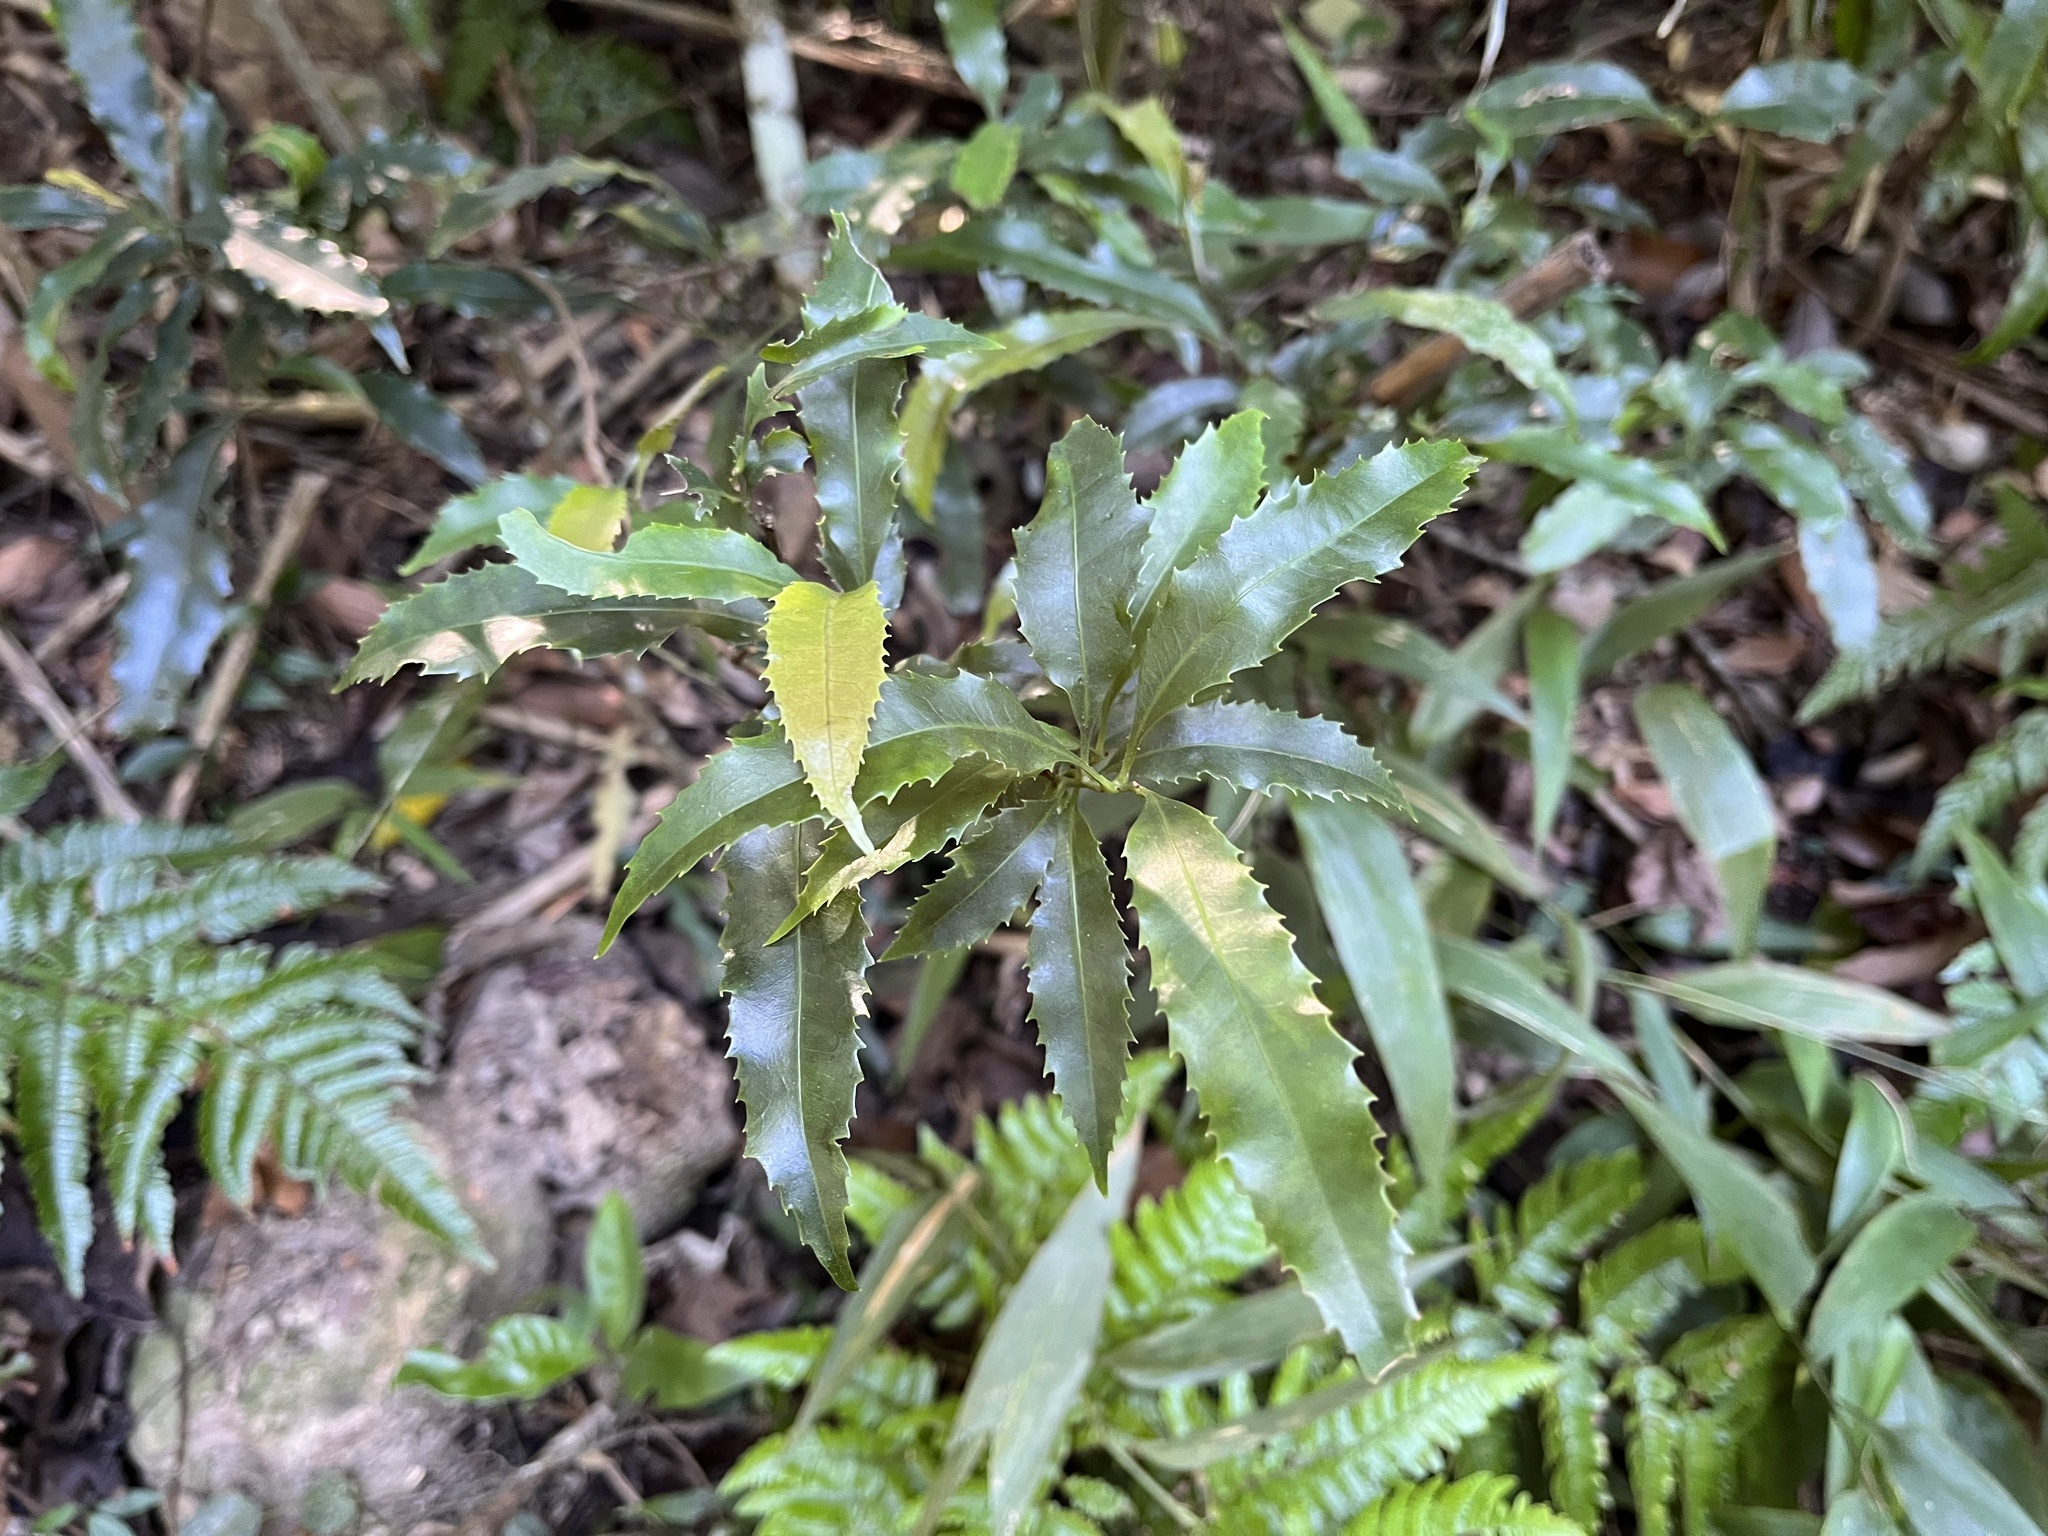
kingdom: Plantae
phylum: Tracheophyta
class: Magnoliopsida
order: Proteales
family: Proteaceae
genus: Helicia
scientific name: Helicia cochinchinensis
